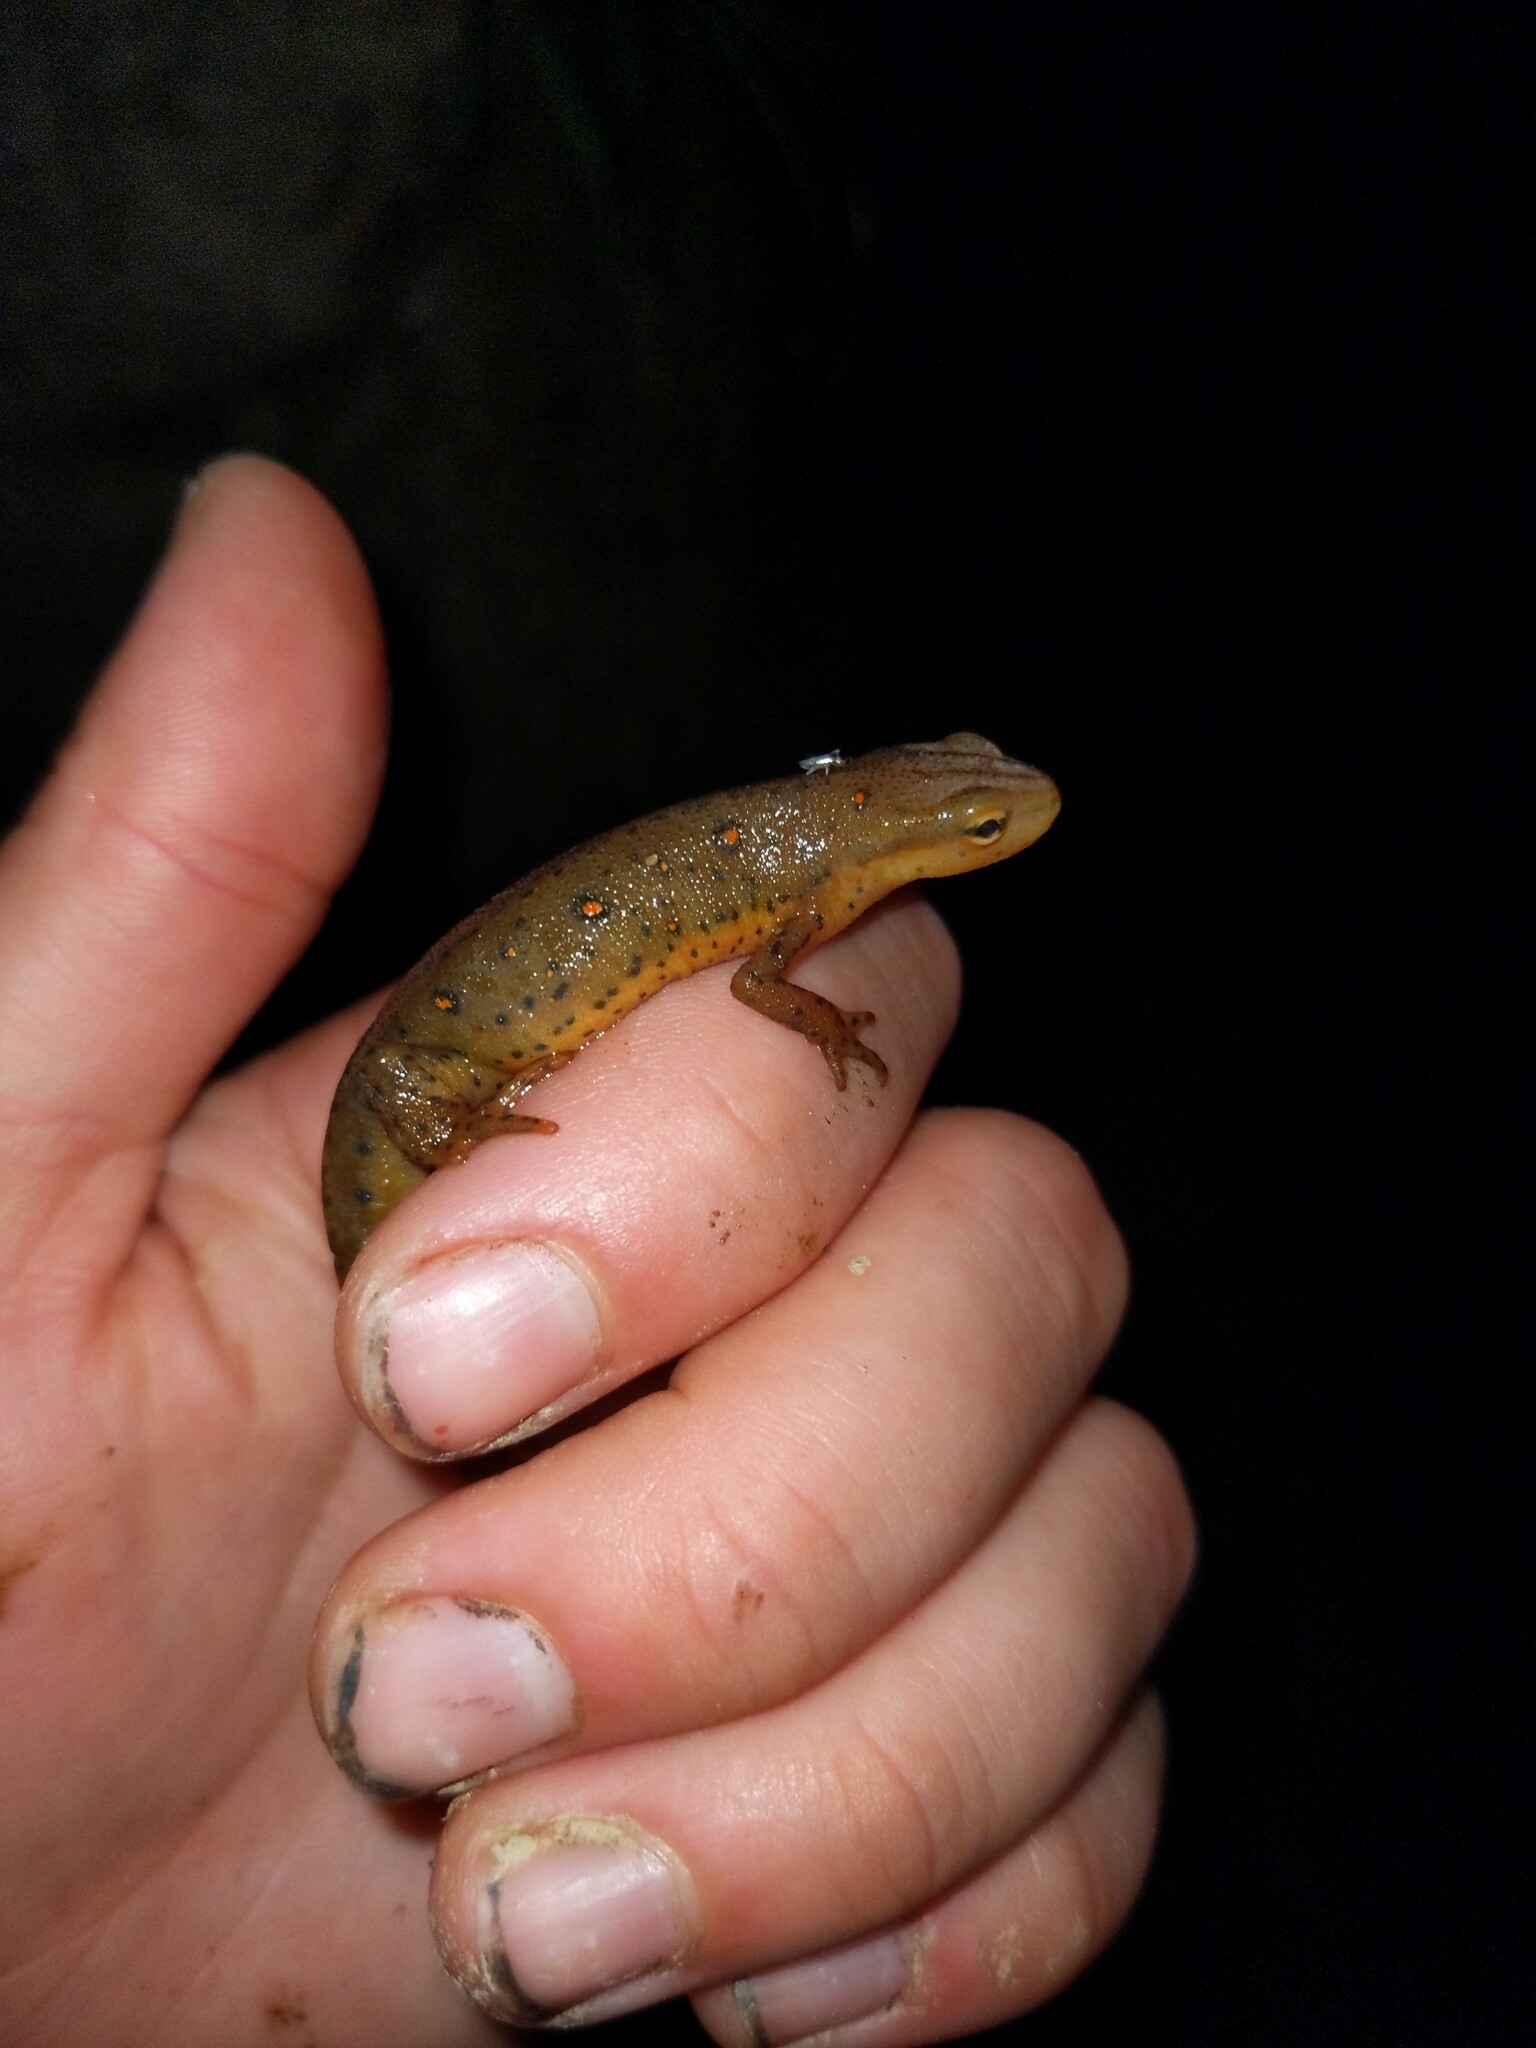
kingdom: Animalia
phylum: Chordata
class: Amphibia
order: Caudata
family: Salamandridae
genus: Notophthalmus
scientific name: Notophthalmus viridescens
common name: Eastern newt
